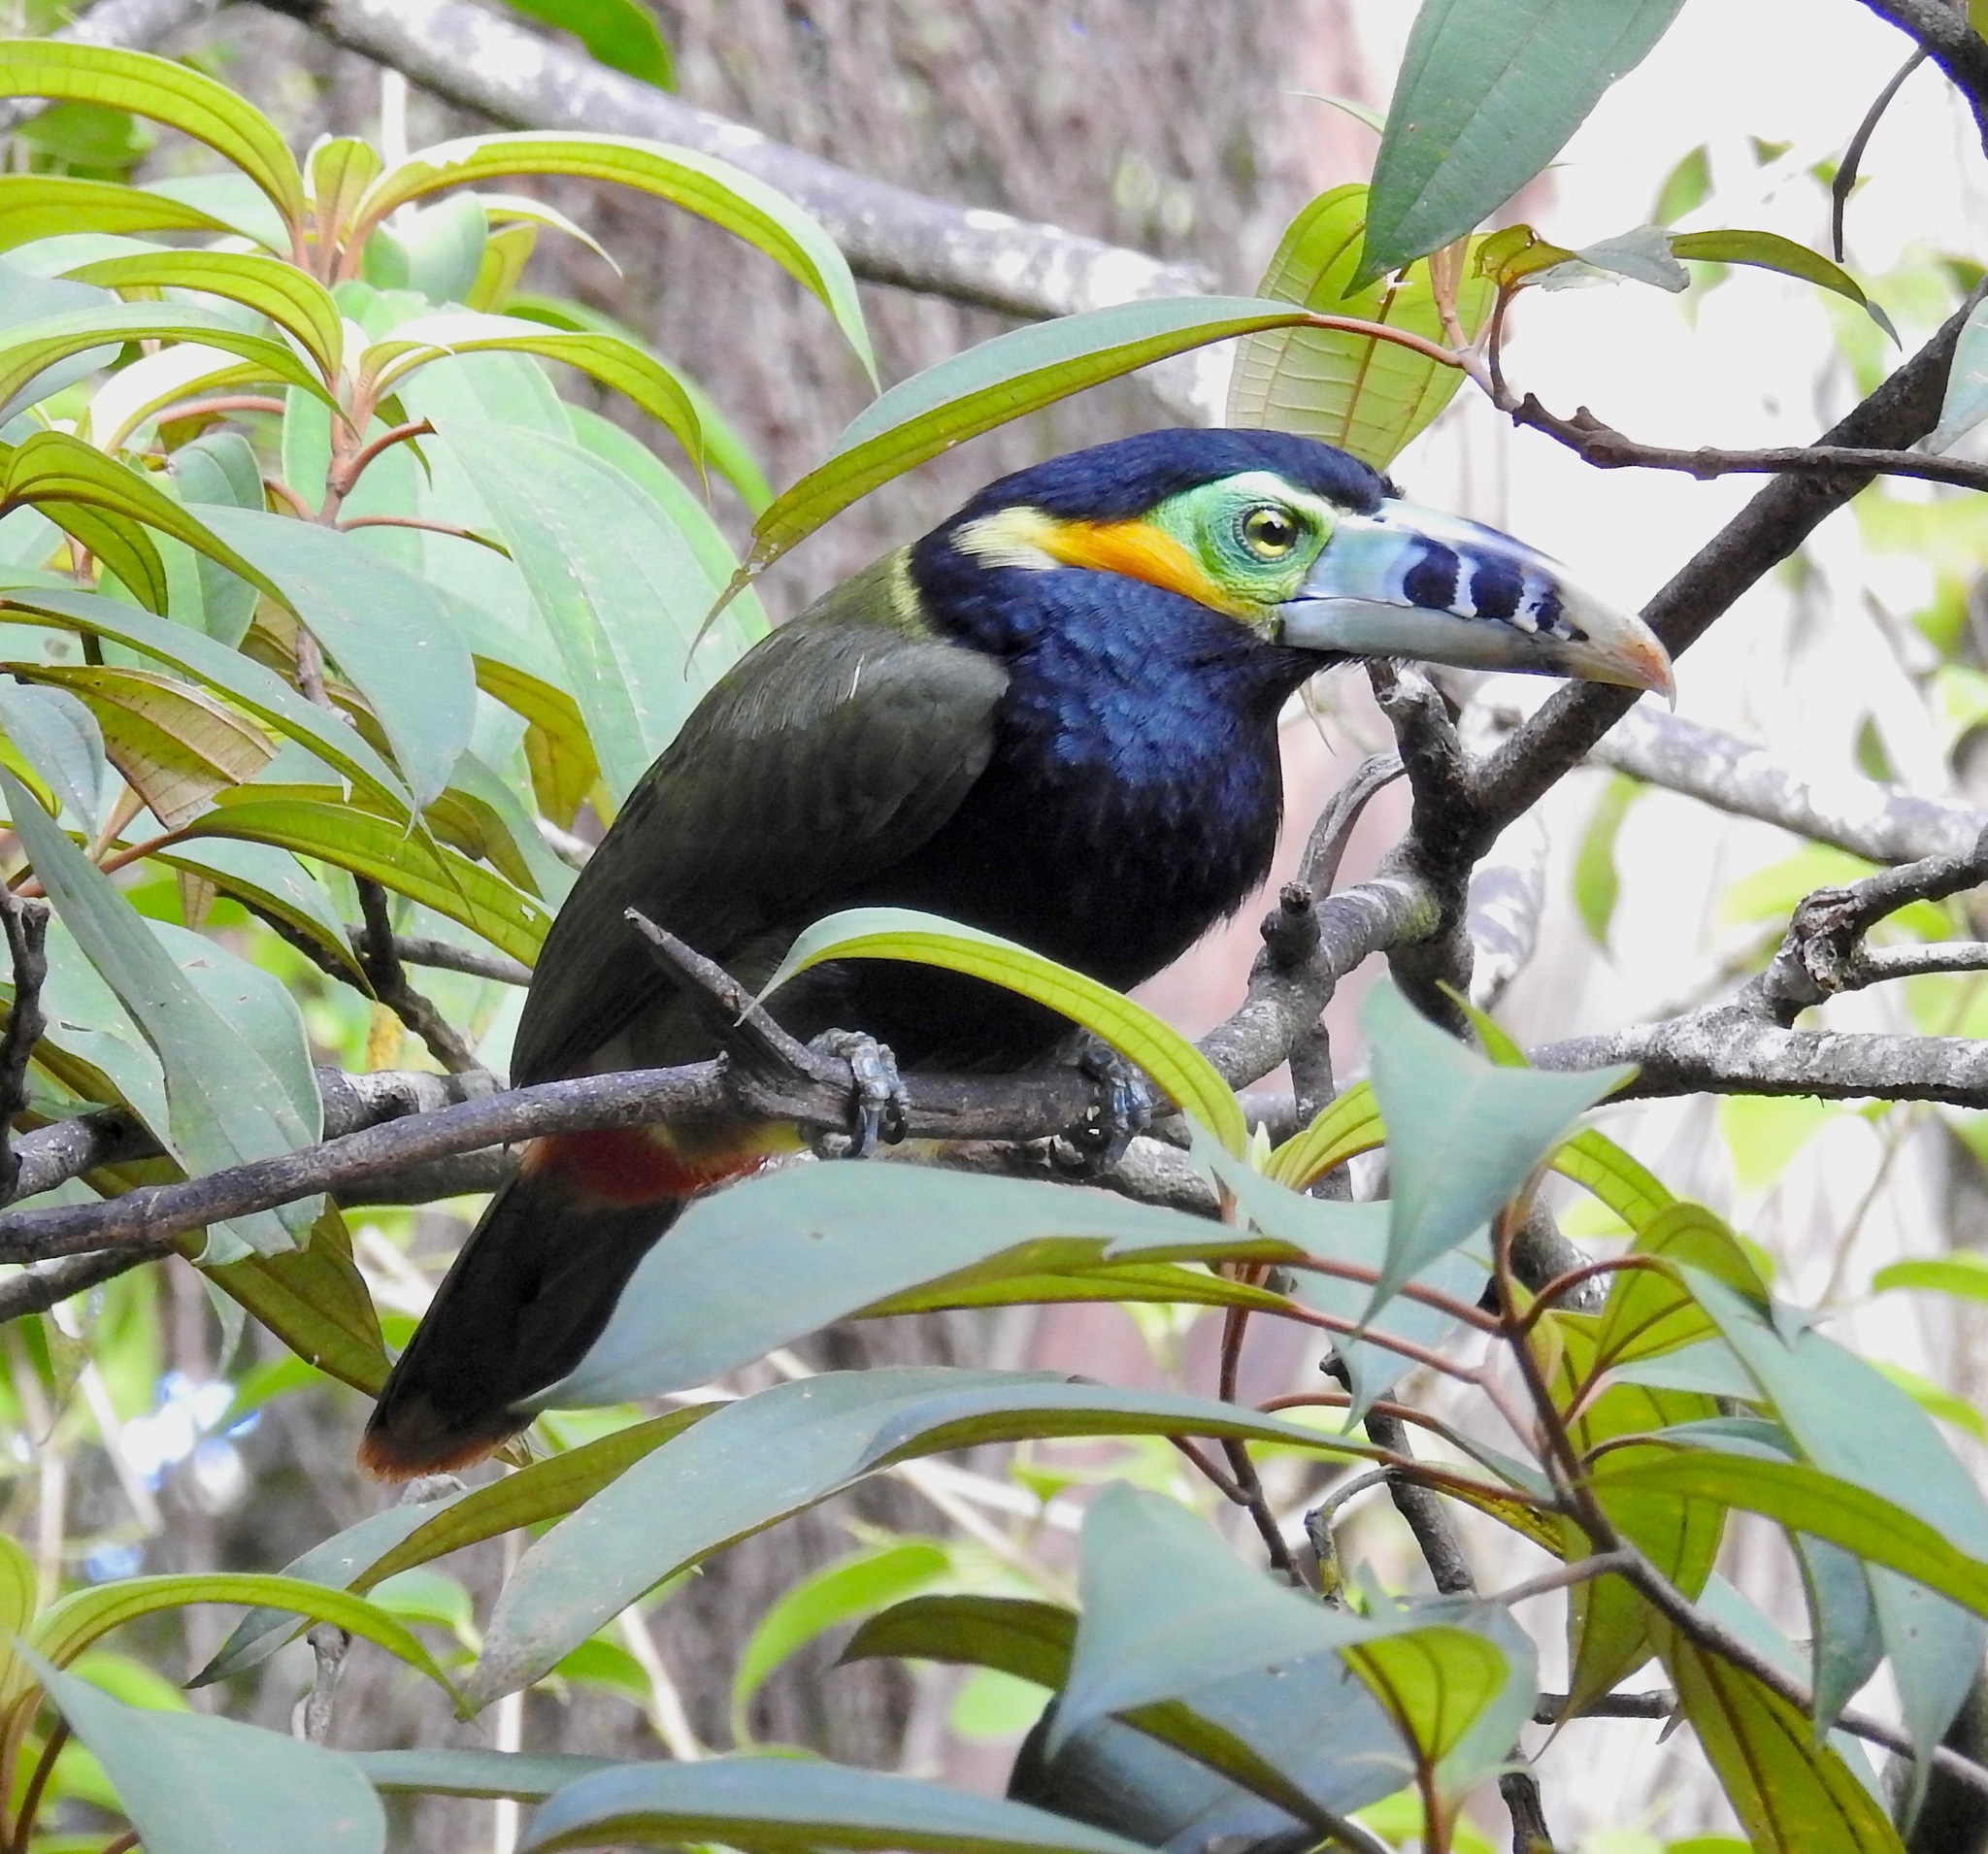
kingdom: Animalia
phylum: Chordata
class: Aves
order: Piciformes
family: Ramphastidae
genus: Selenidera
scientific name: Selenidera maculirostris
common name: Spot-billed toucanet
